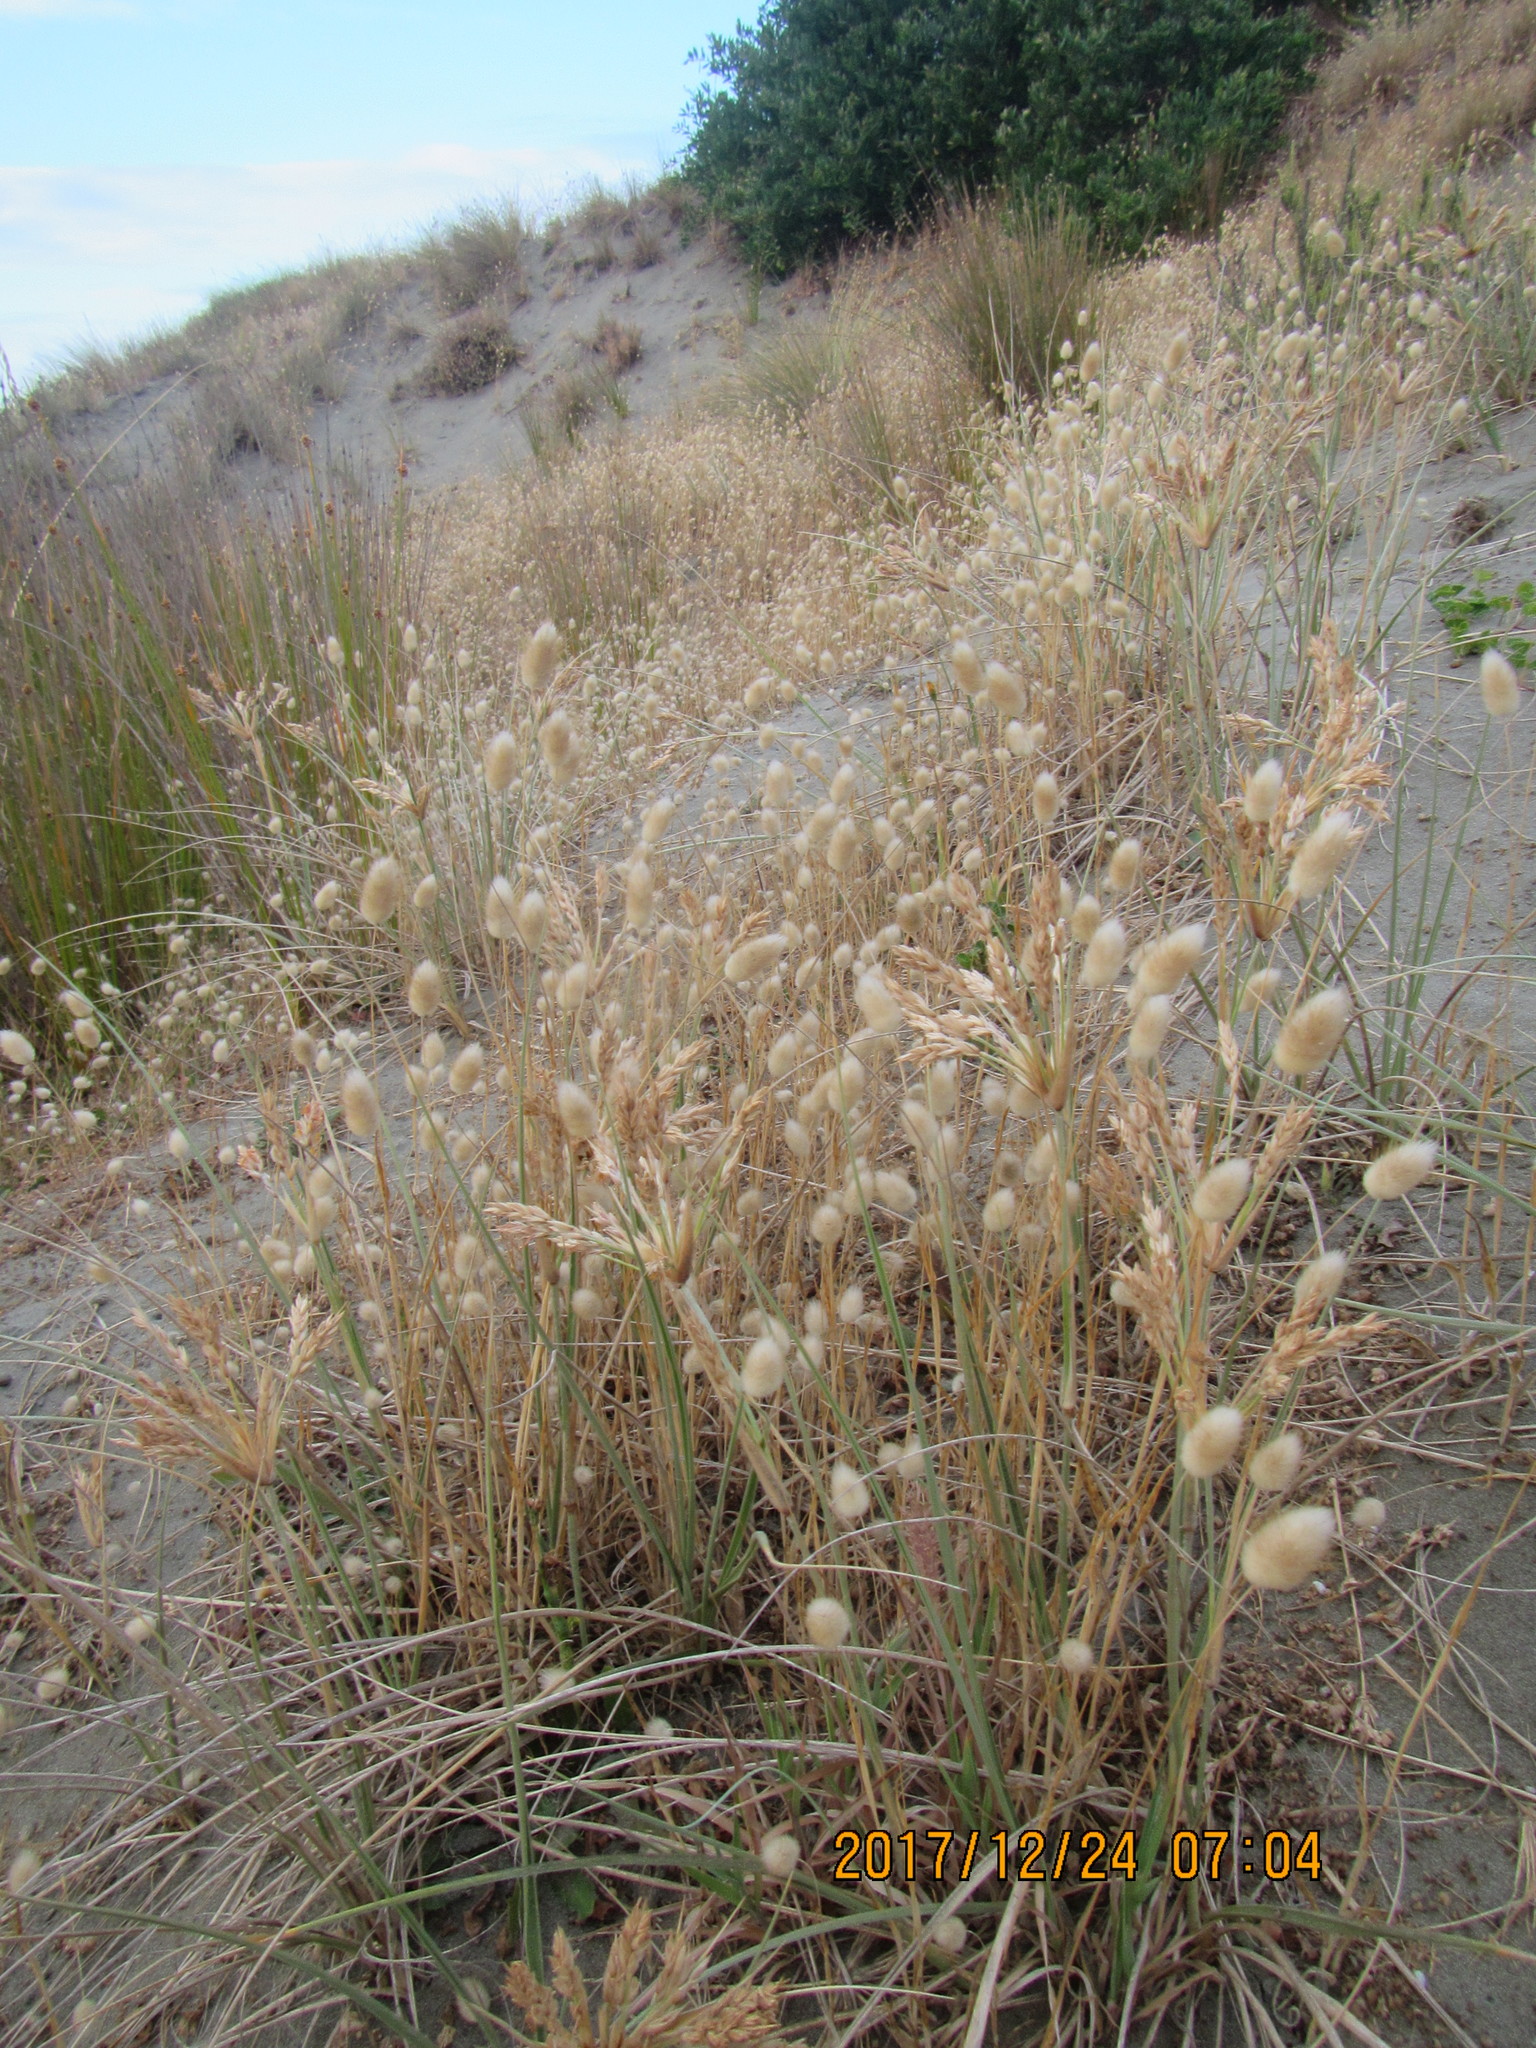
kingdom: Plantae
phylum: Tracheophyta
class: Liliopsida
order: Poales
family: Poaceae
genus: Lagurus
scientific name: Lagurus ovatus
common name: Hare's-tail
